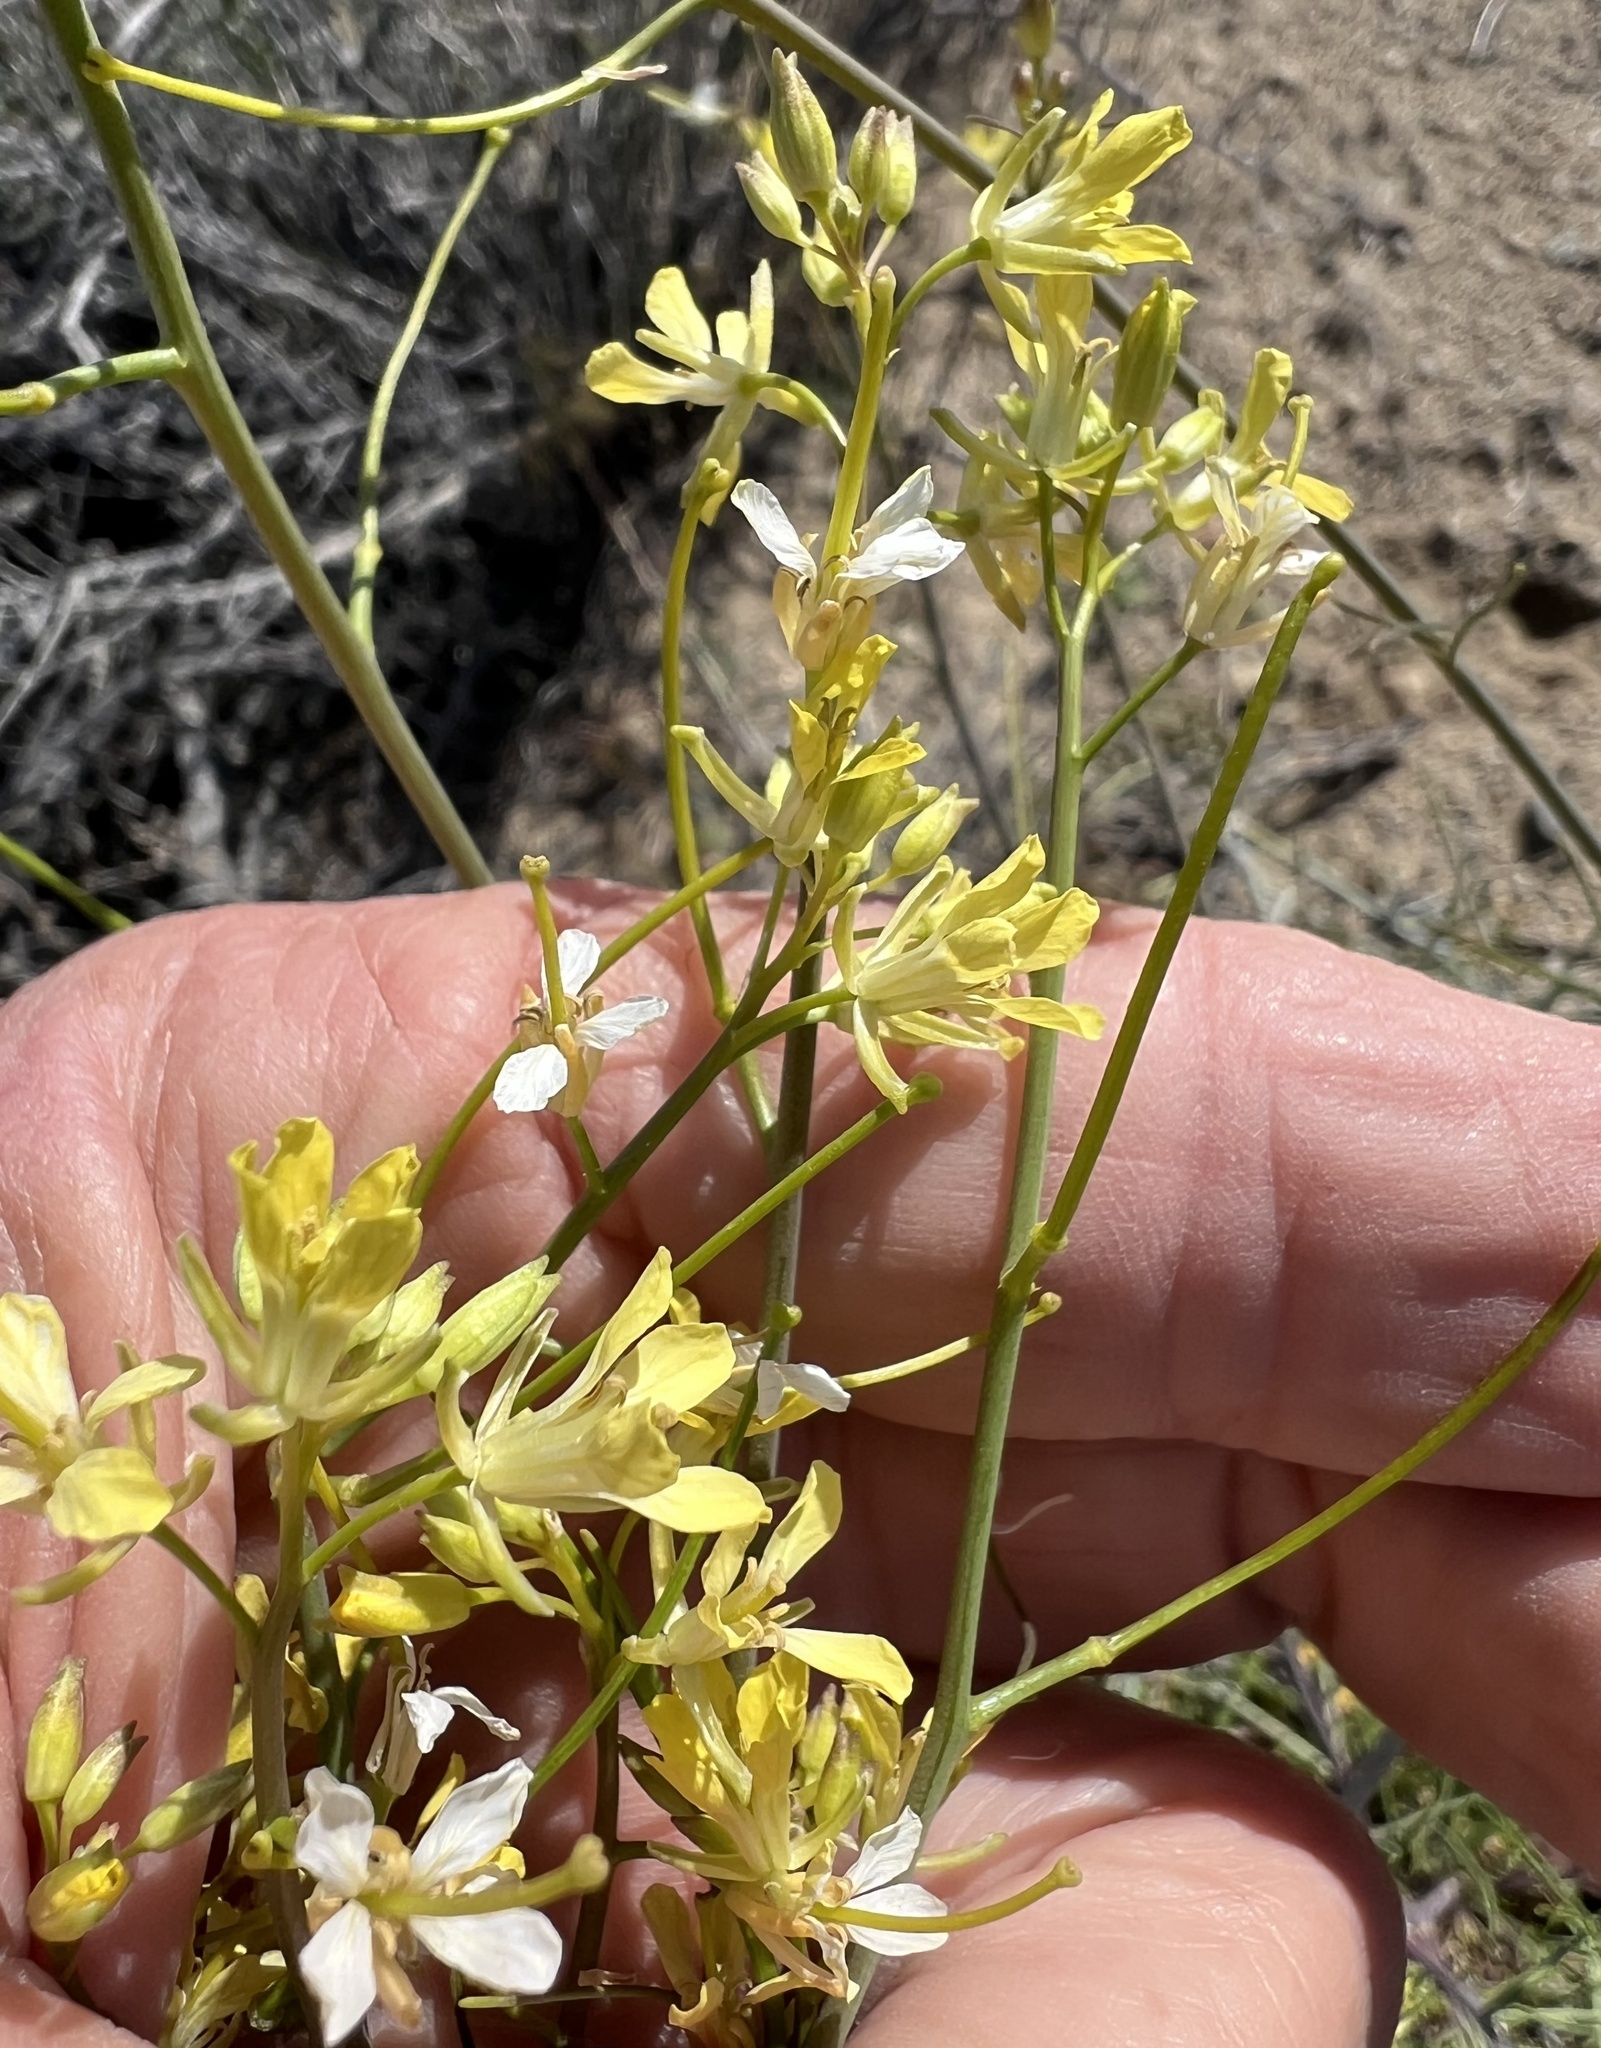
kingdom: Plantae
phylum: Tracheophyta
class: Magnoliopsida
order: Brassicales
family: Brassicaceae
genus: Sisymbrium
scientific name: Sisymbrium altissimum
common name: Tall rocket
